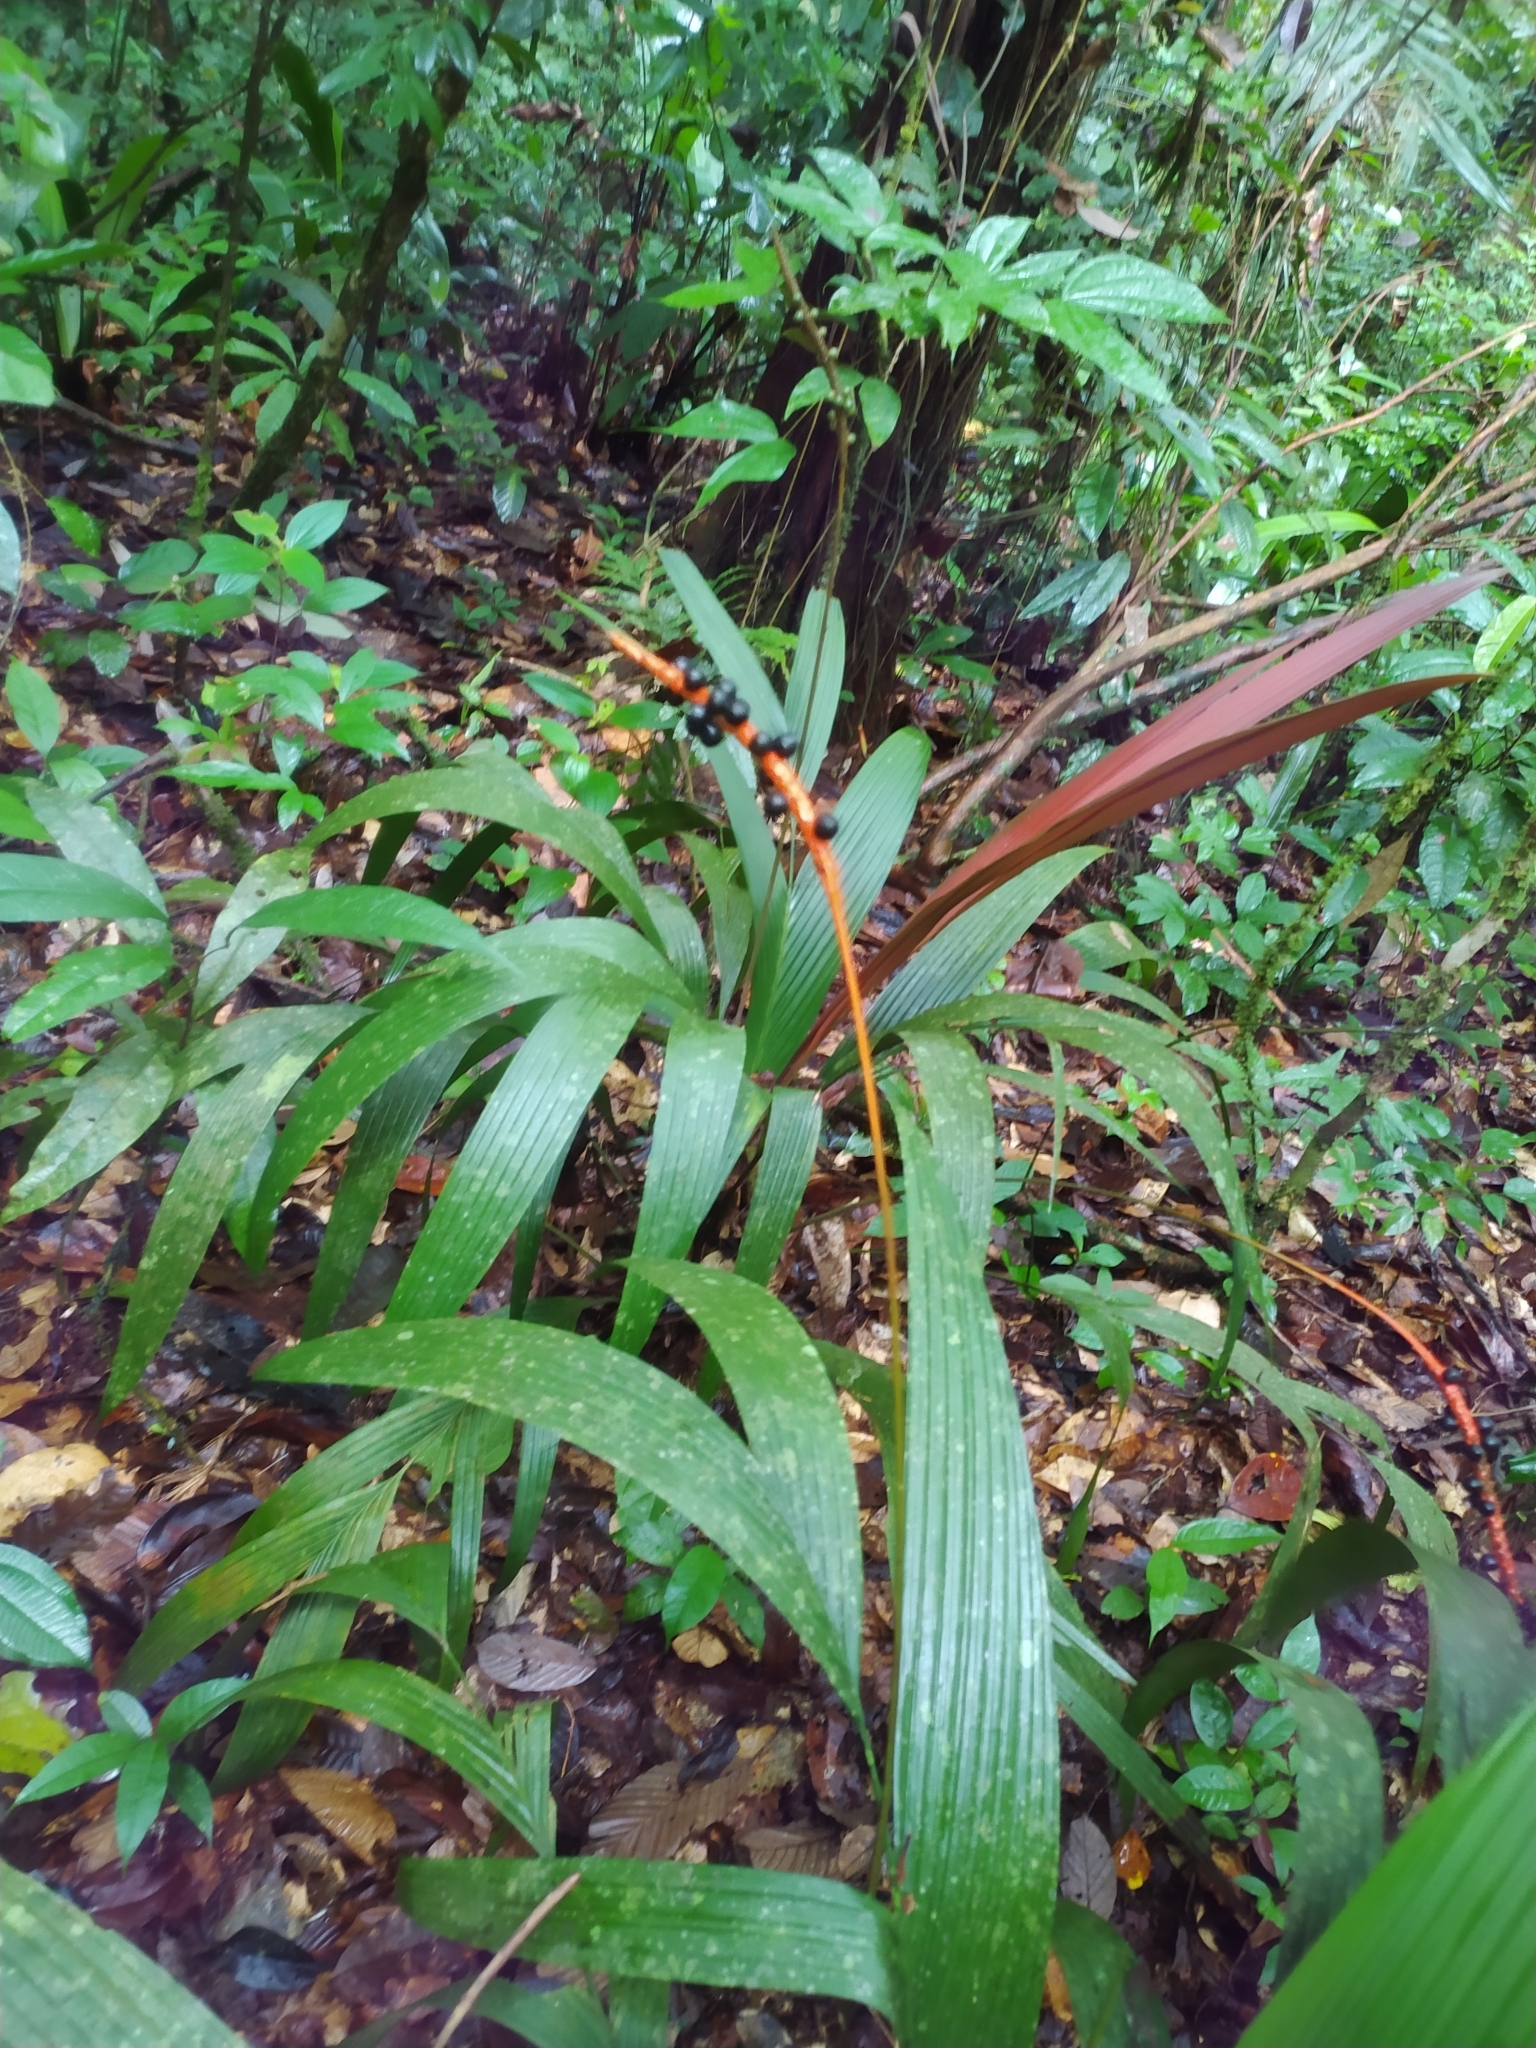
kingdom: Plantae
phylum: Tracheophyta
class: Liliopsida
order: Arecales
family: Arecaceae
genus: Geonoma
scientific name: Geonoma poiteauana
